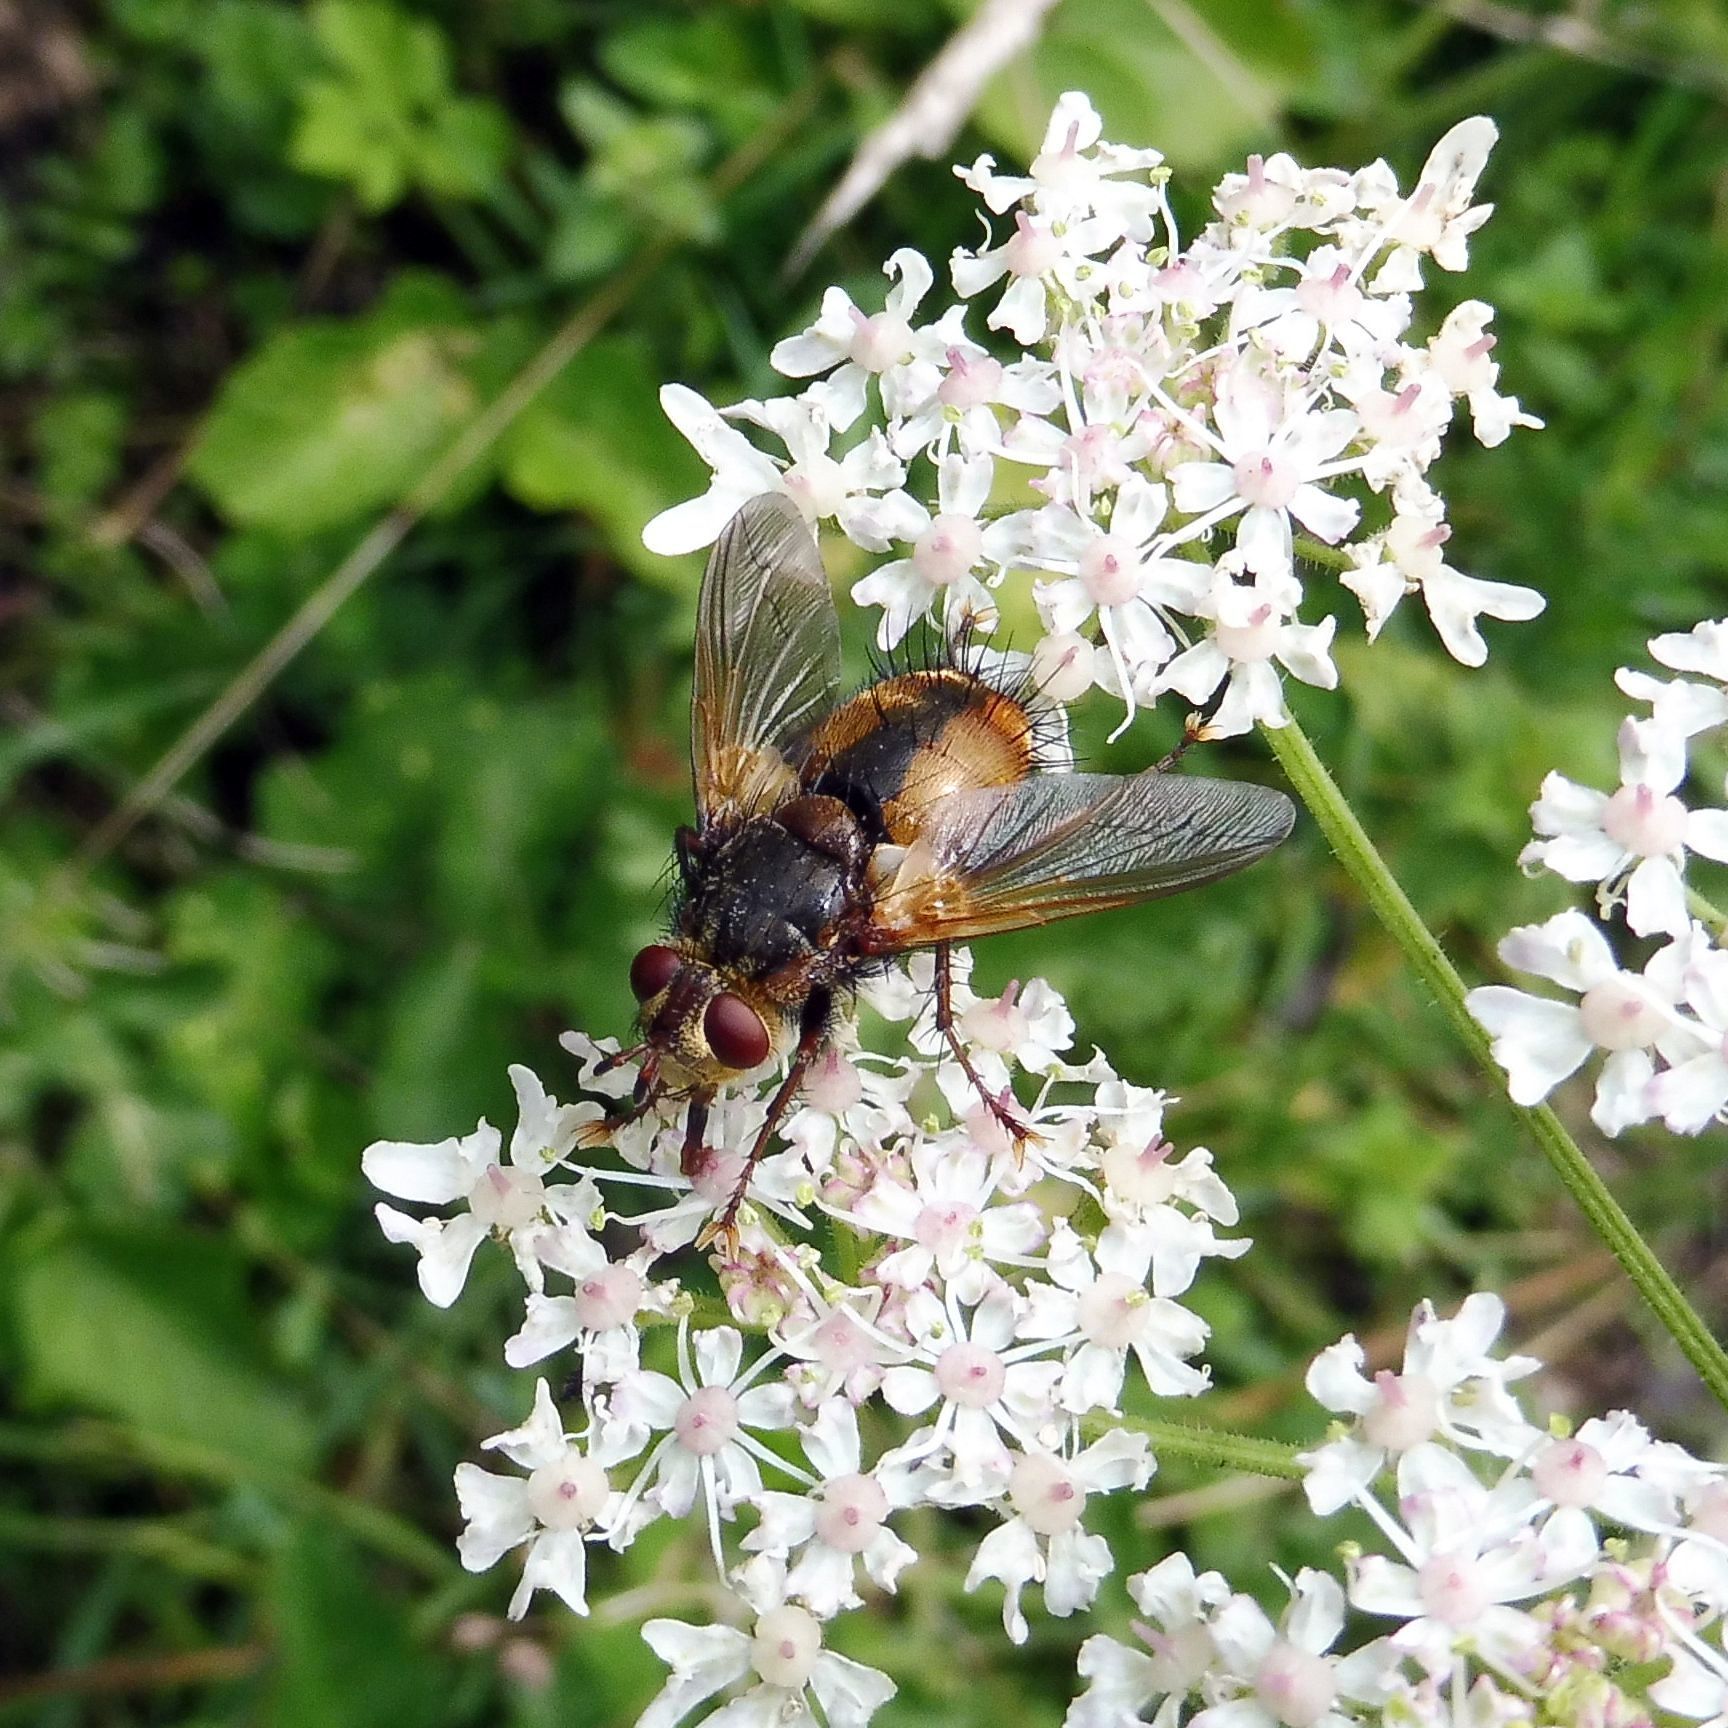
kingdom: Animalia
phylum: Arthropoda
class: Insecta
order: Diptera
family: Tachinidae
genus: Tachina
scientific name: Tachina fera
